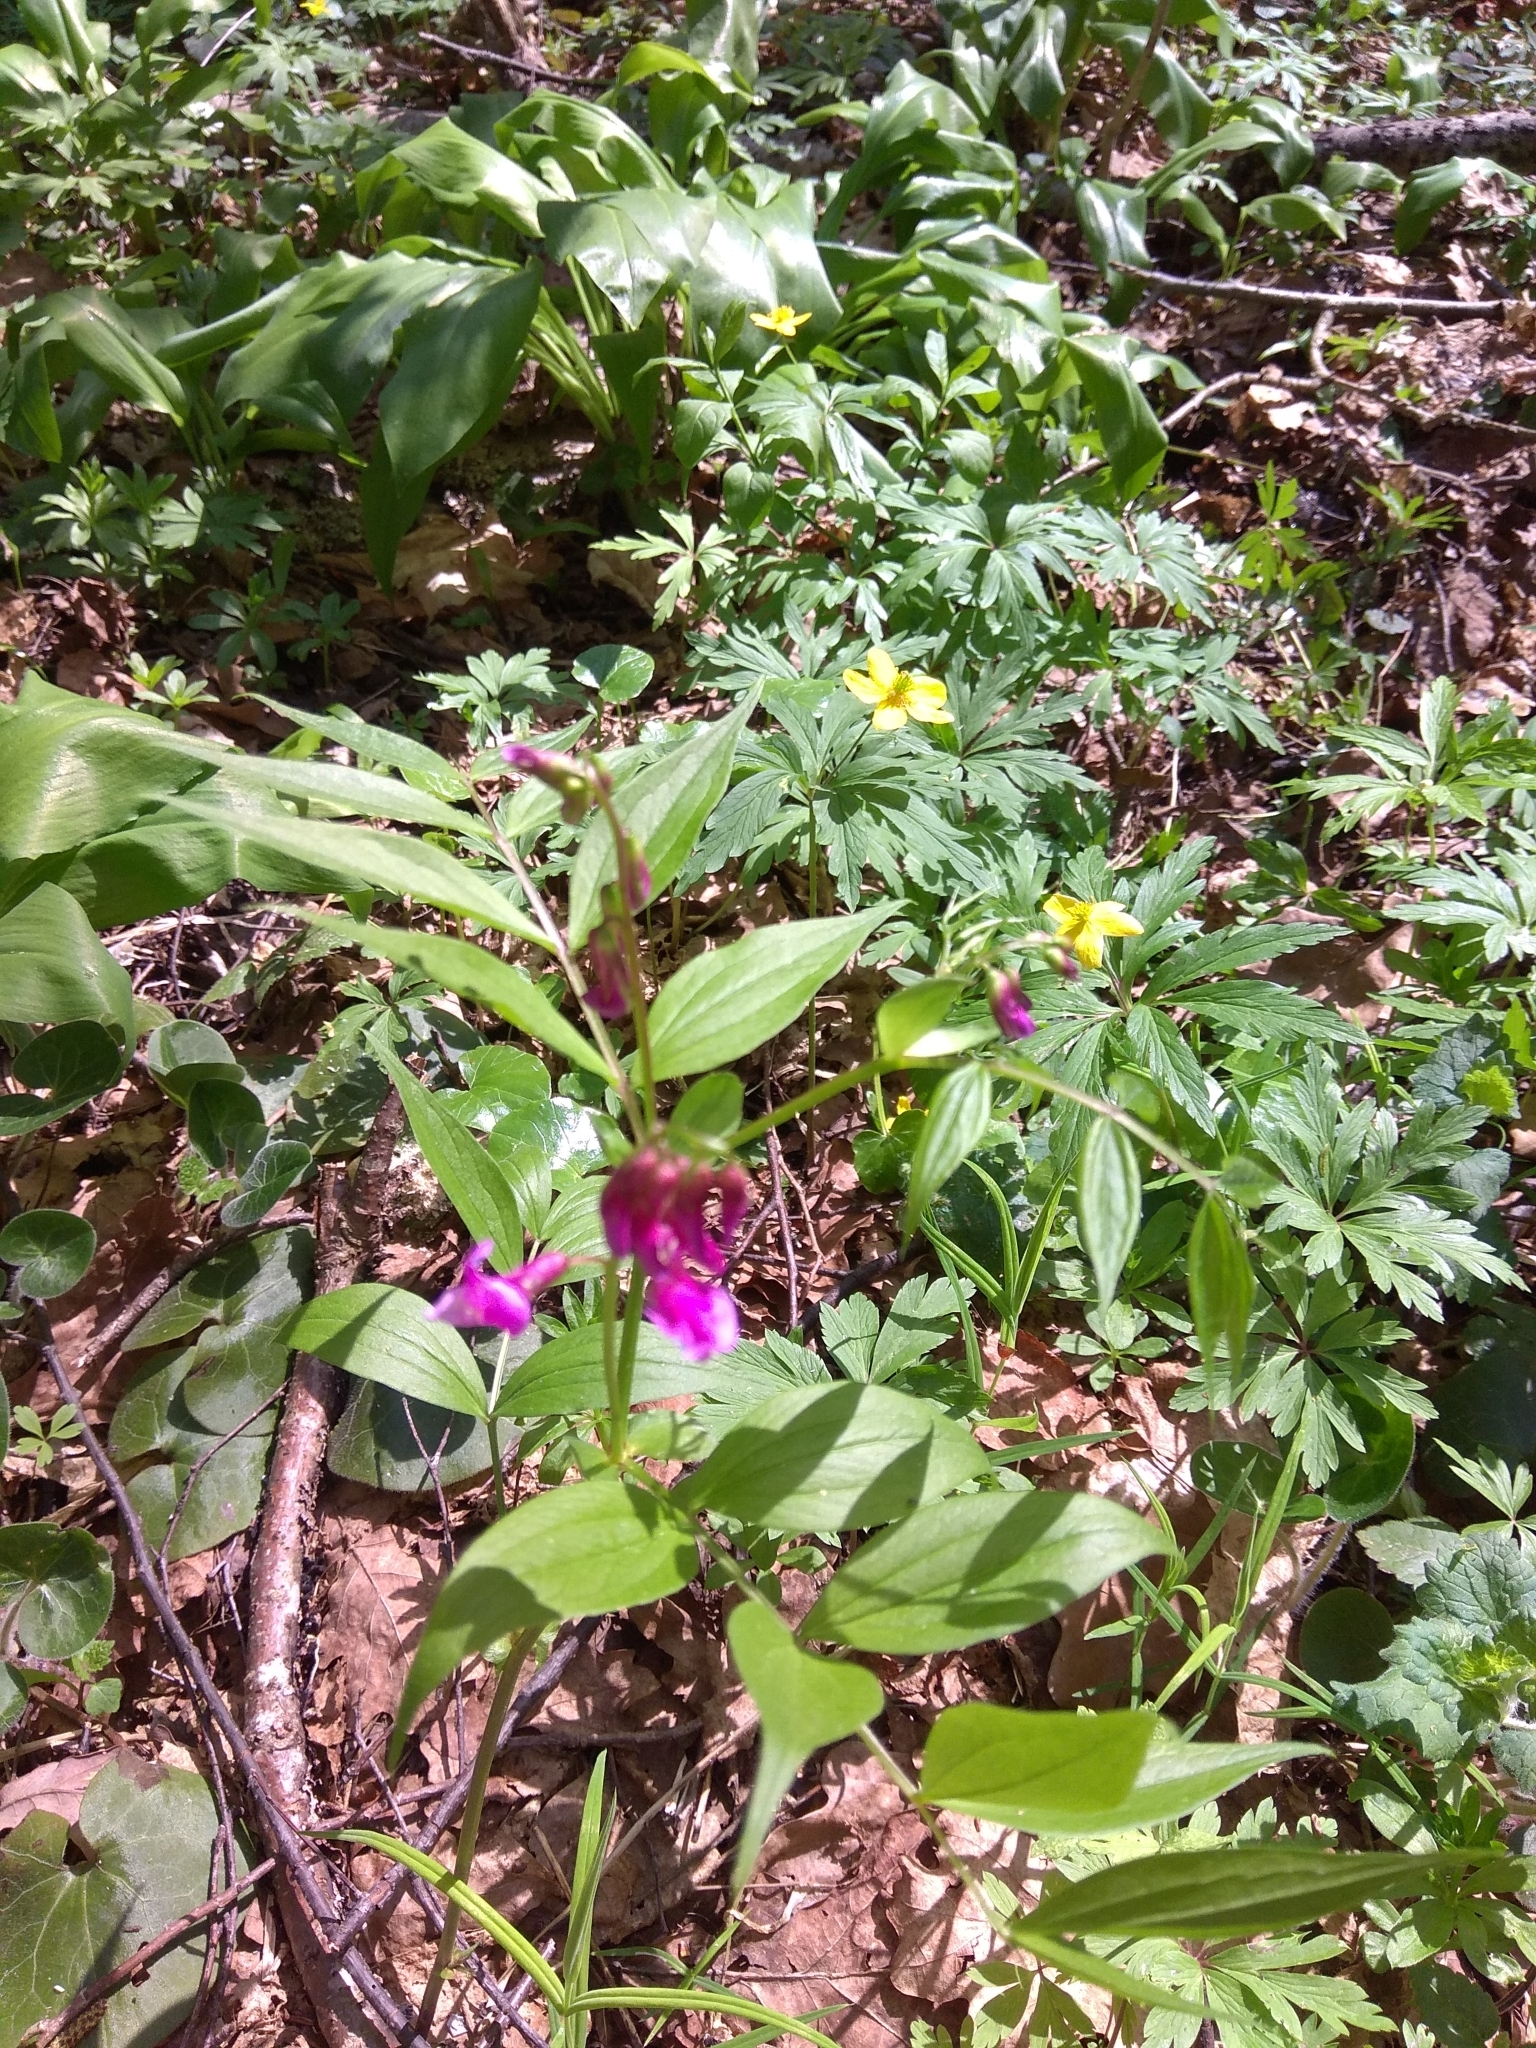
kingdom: Plantae
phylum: Tracheophyta
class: Magnoliopsida
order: Fabales
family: Fabaceae
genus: Lathyrus
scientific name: Lathyrus vernus
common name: Spring pea
